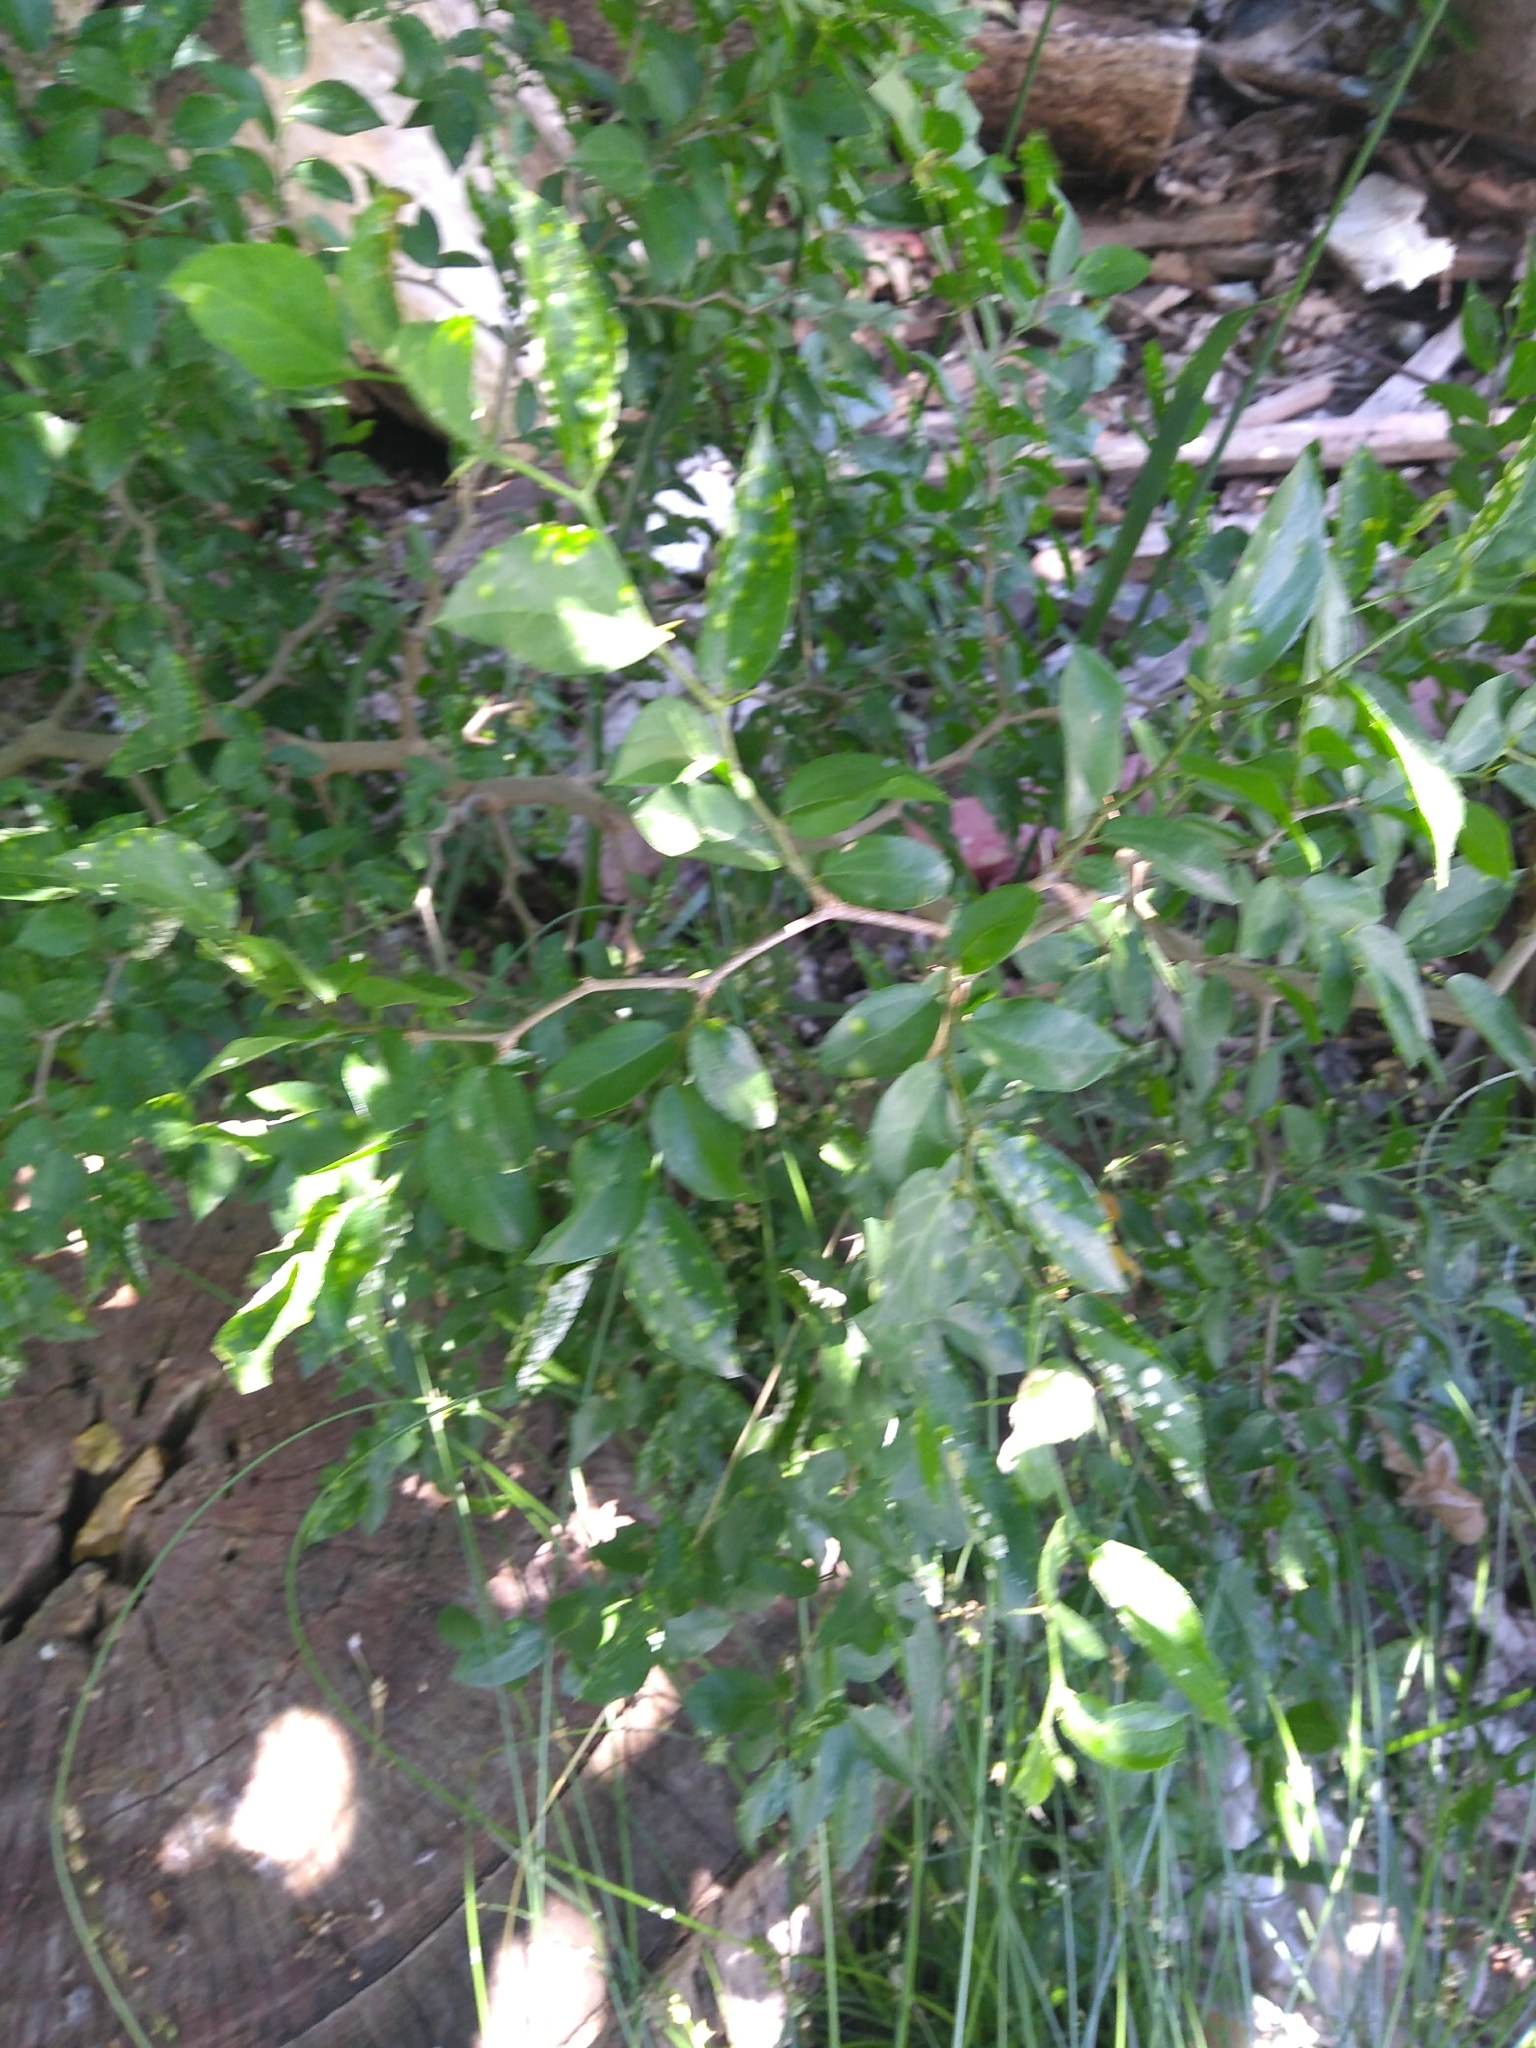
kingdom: Plantae
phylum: Tracheophyta
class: Magnoliopsida
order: Rosales
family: Cannabaceae
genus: Celtis
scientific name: Celtis tala
